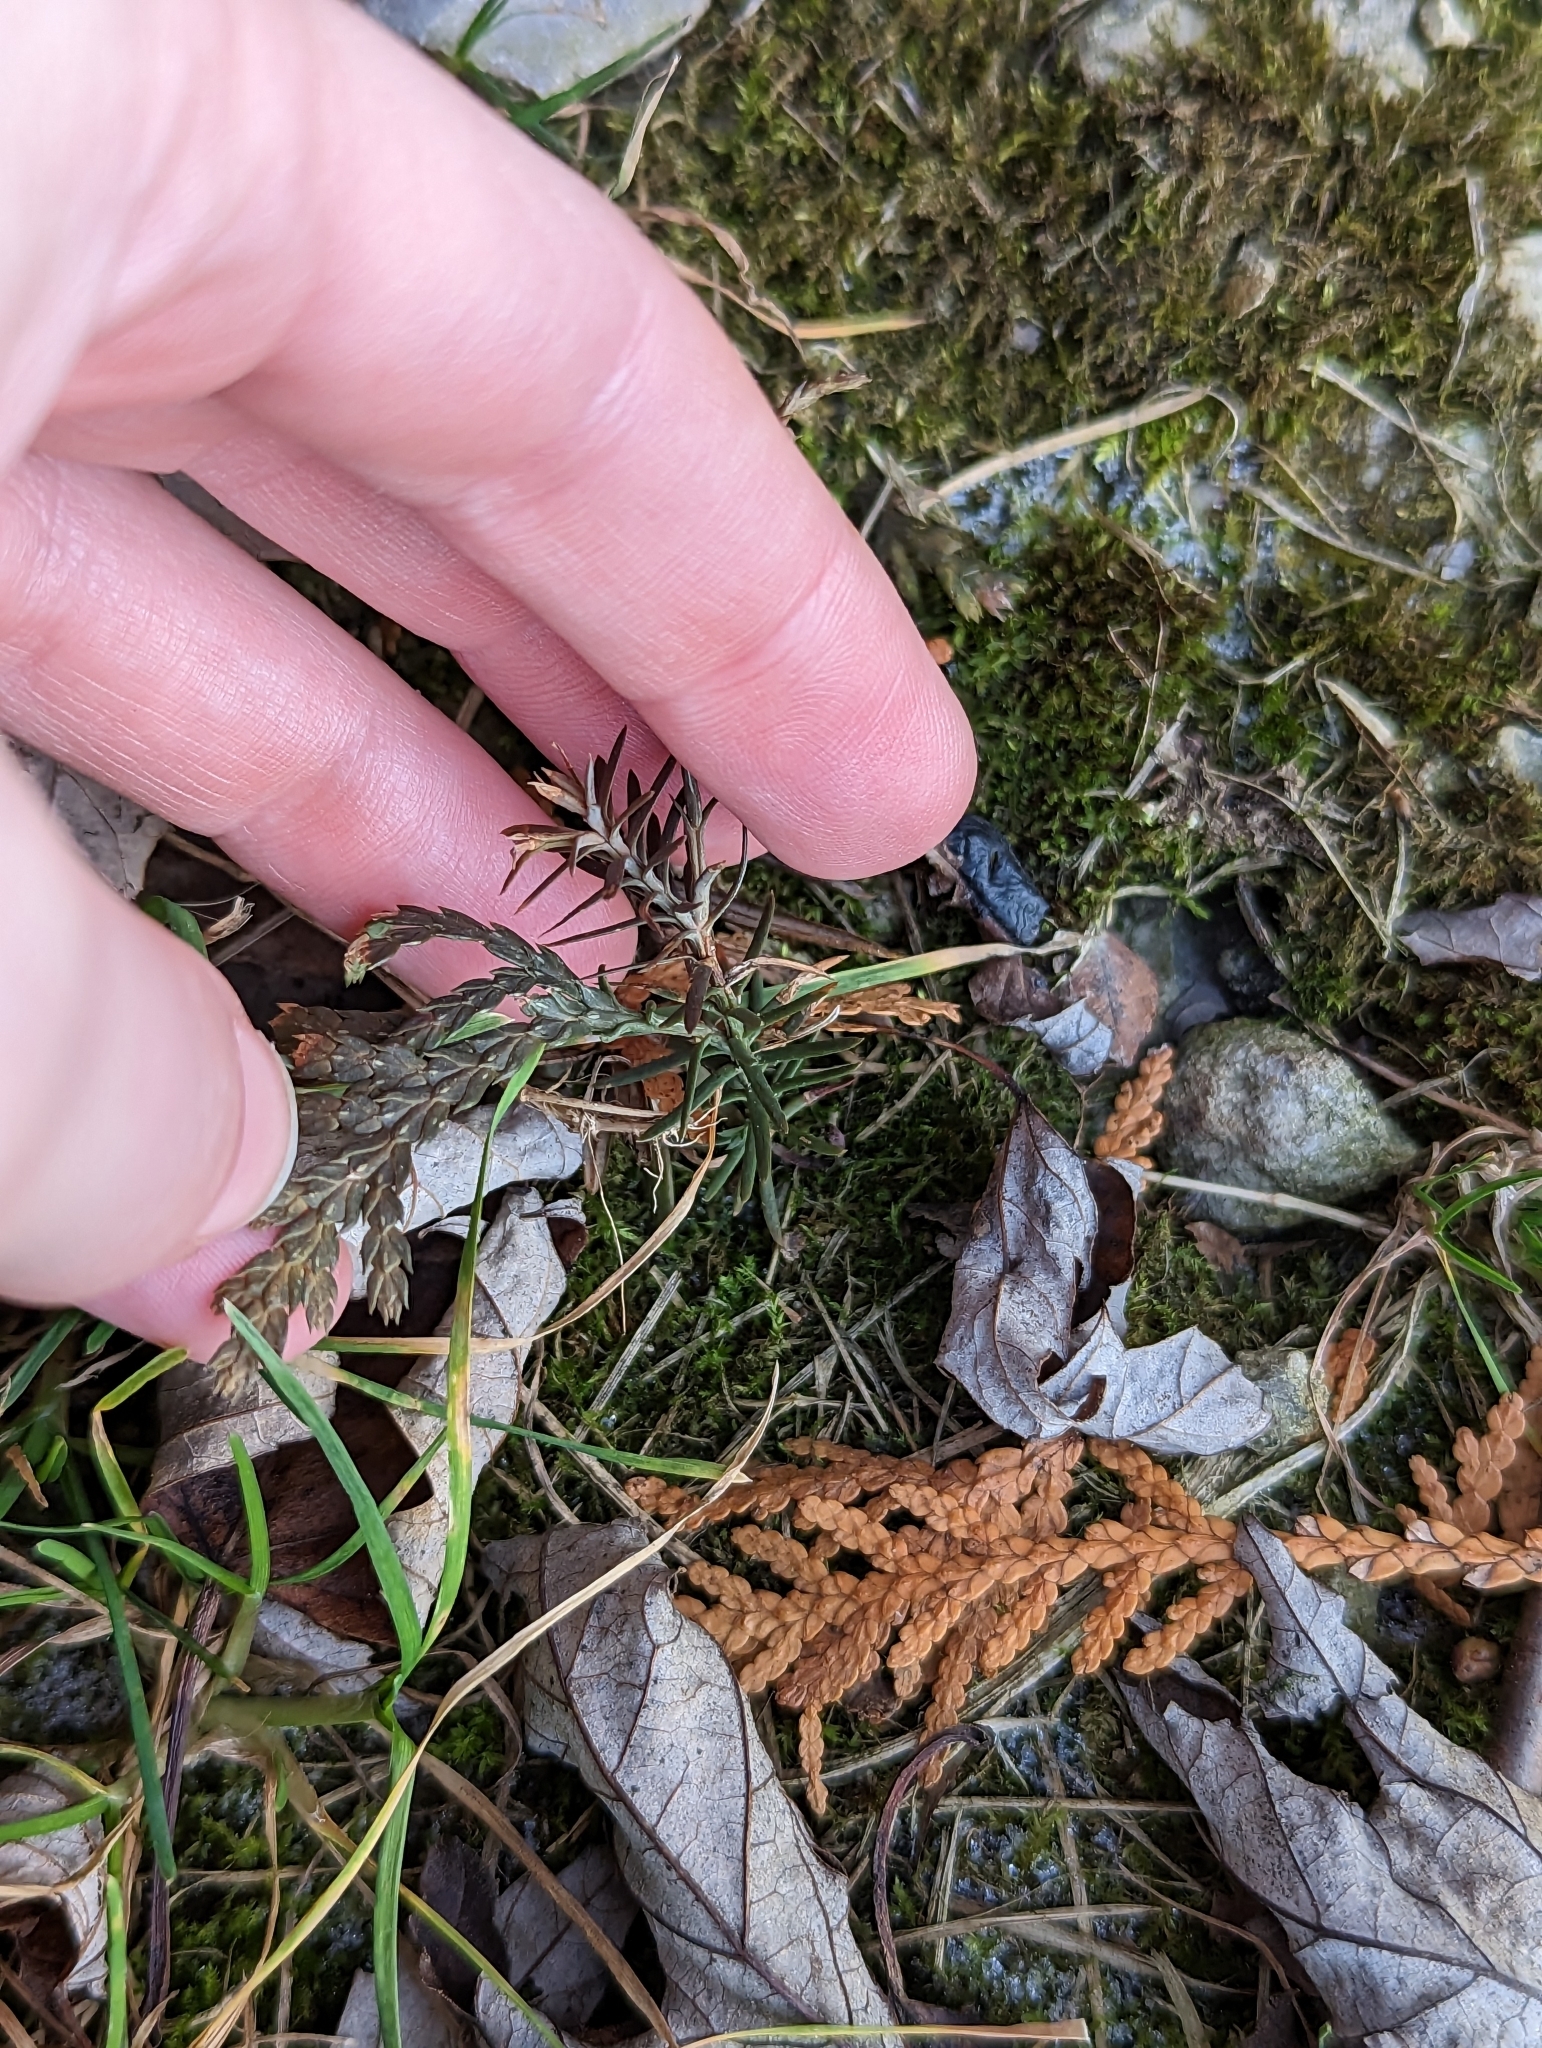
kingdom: Plantae
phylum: Tracheophyta
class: Pinopsida
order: Pinales
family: Cupressaceae
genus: Thuja
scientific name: Thuja occidentalis
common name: Northern white-cedar
